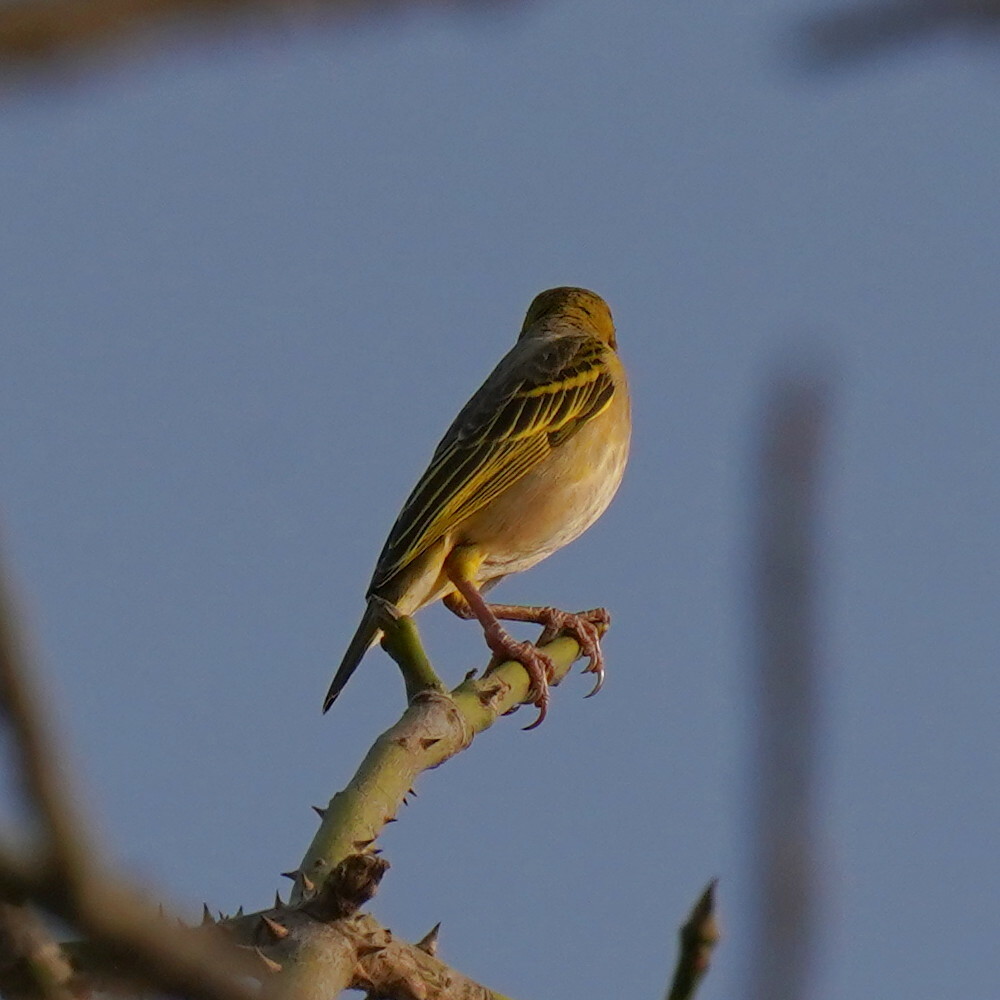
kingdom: Animalia
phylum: Chordata
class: Aves
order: Passeriformes
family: Ploceidae
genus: Ploceus
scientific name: Ploceus cucullatus
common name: Village weaver
